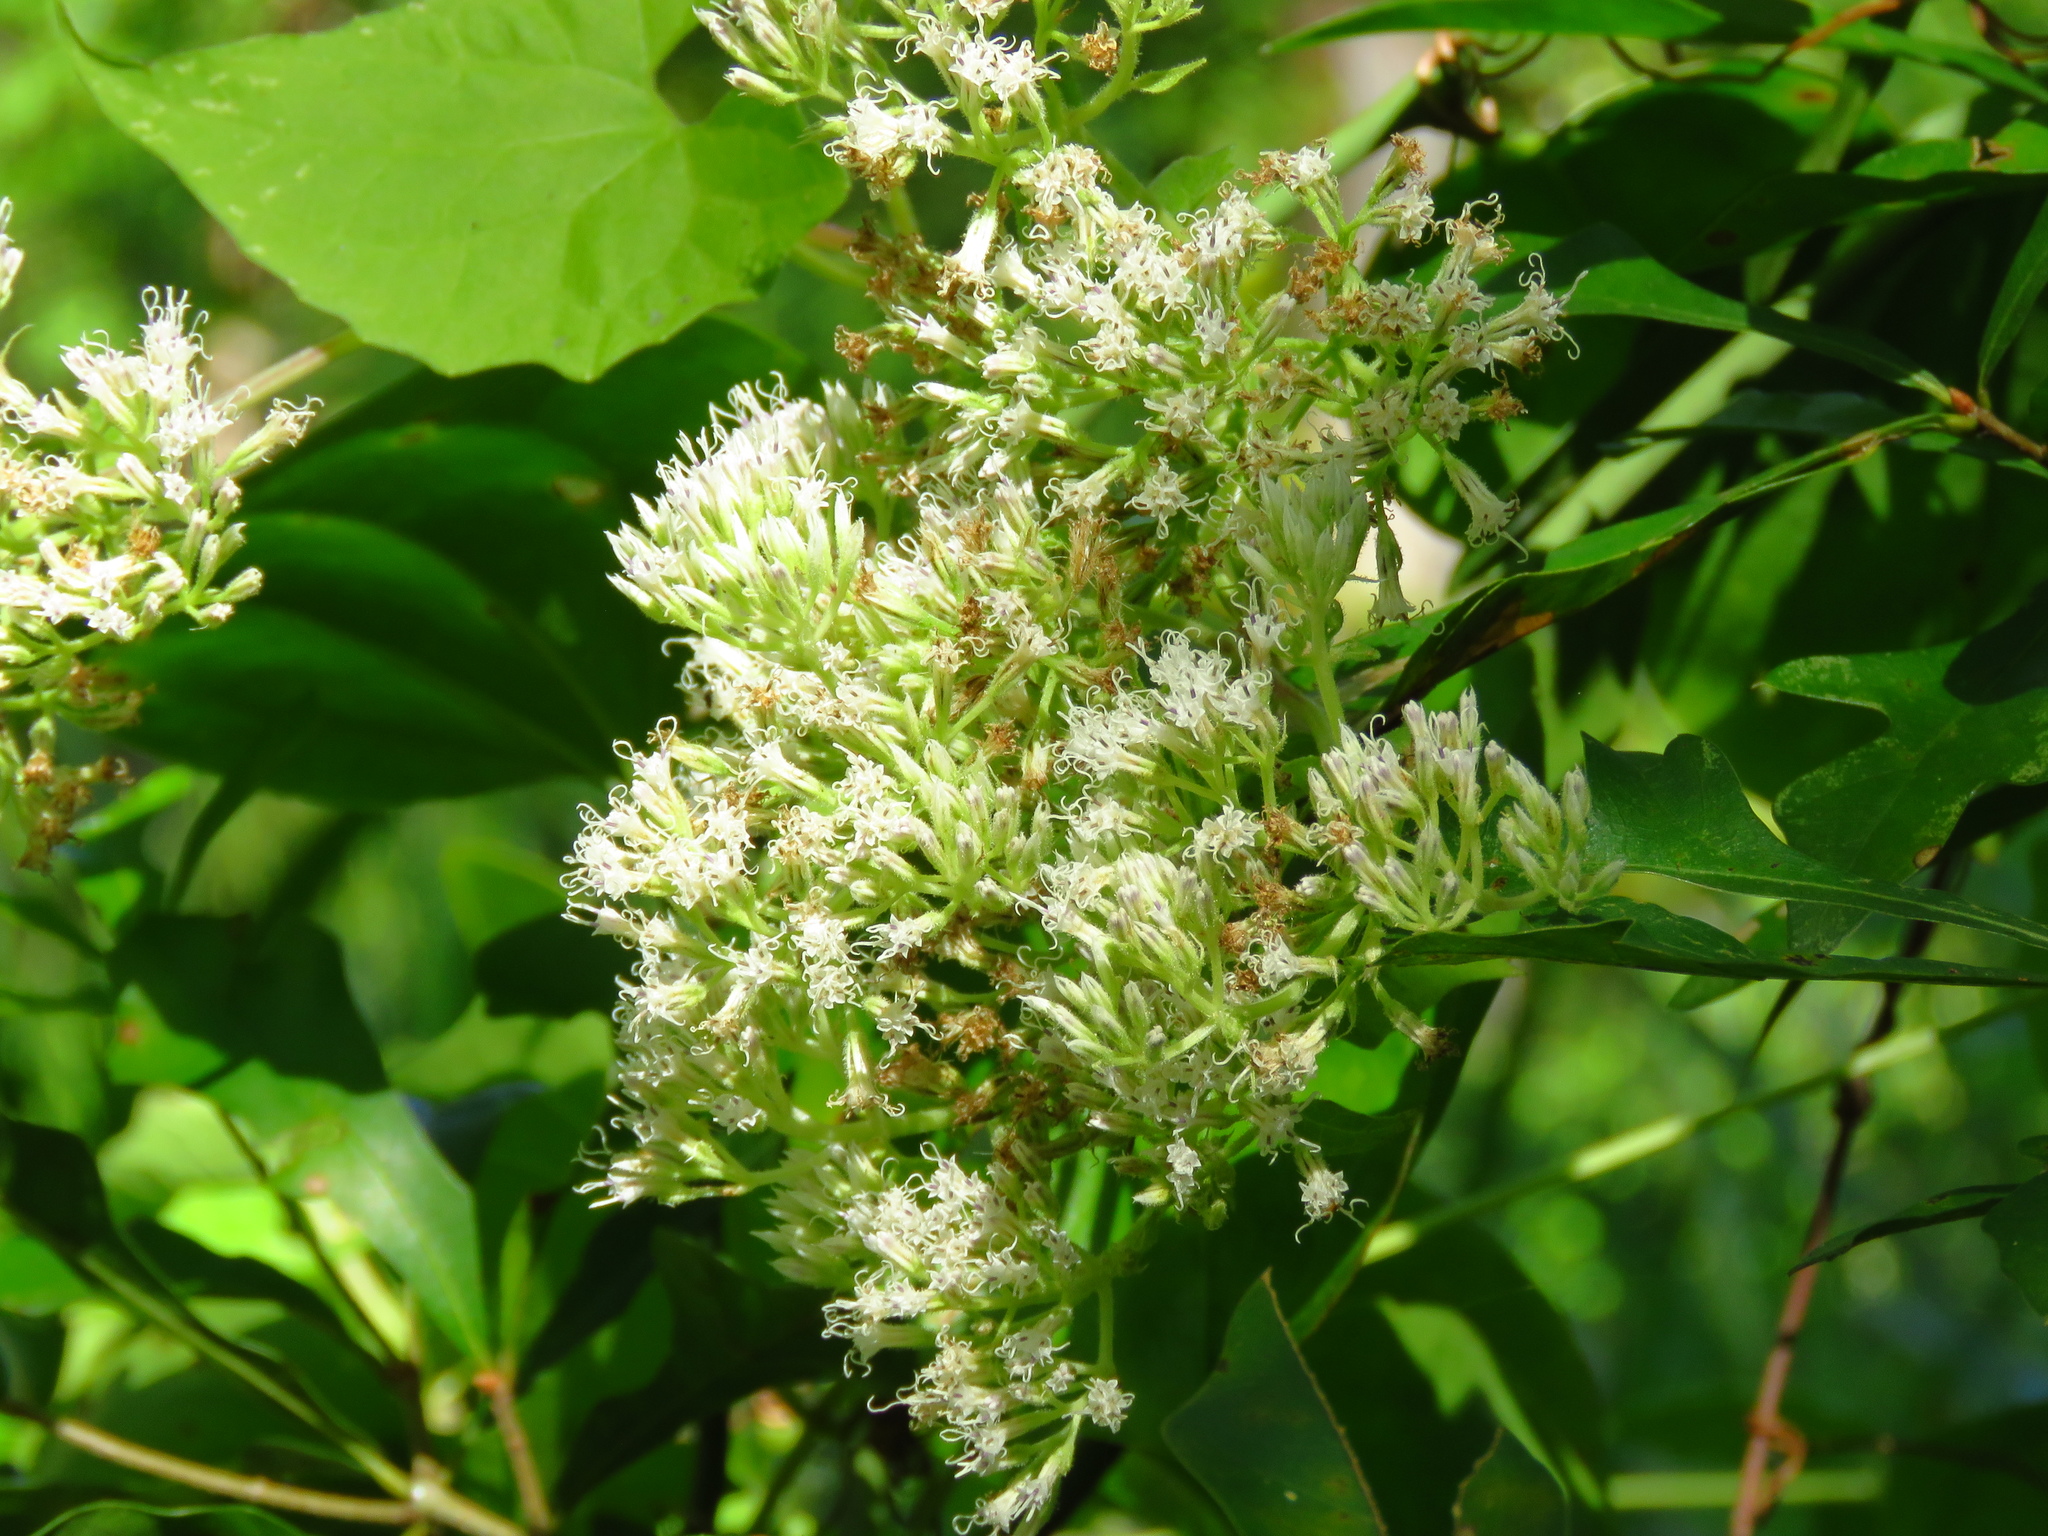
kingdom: Plantae
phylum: Tracheophyta
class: Magnoliopsida
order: Asterales
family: Asteraceae
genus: Mikania
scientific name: Mikania scandens
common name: Climbing hempvine
